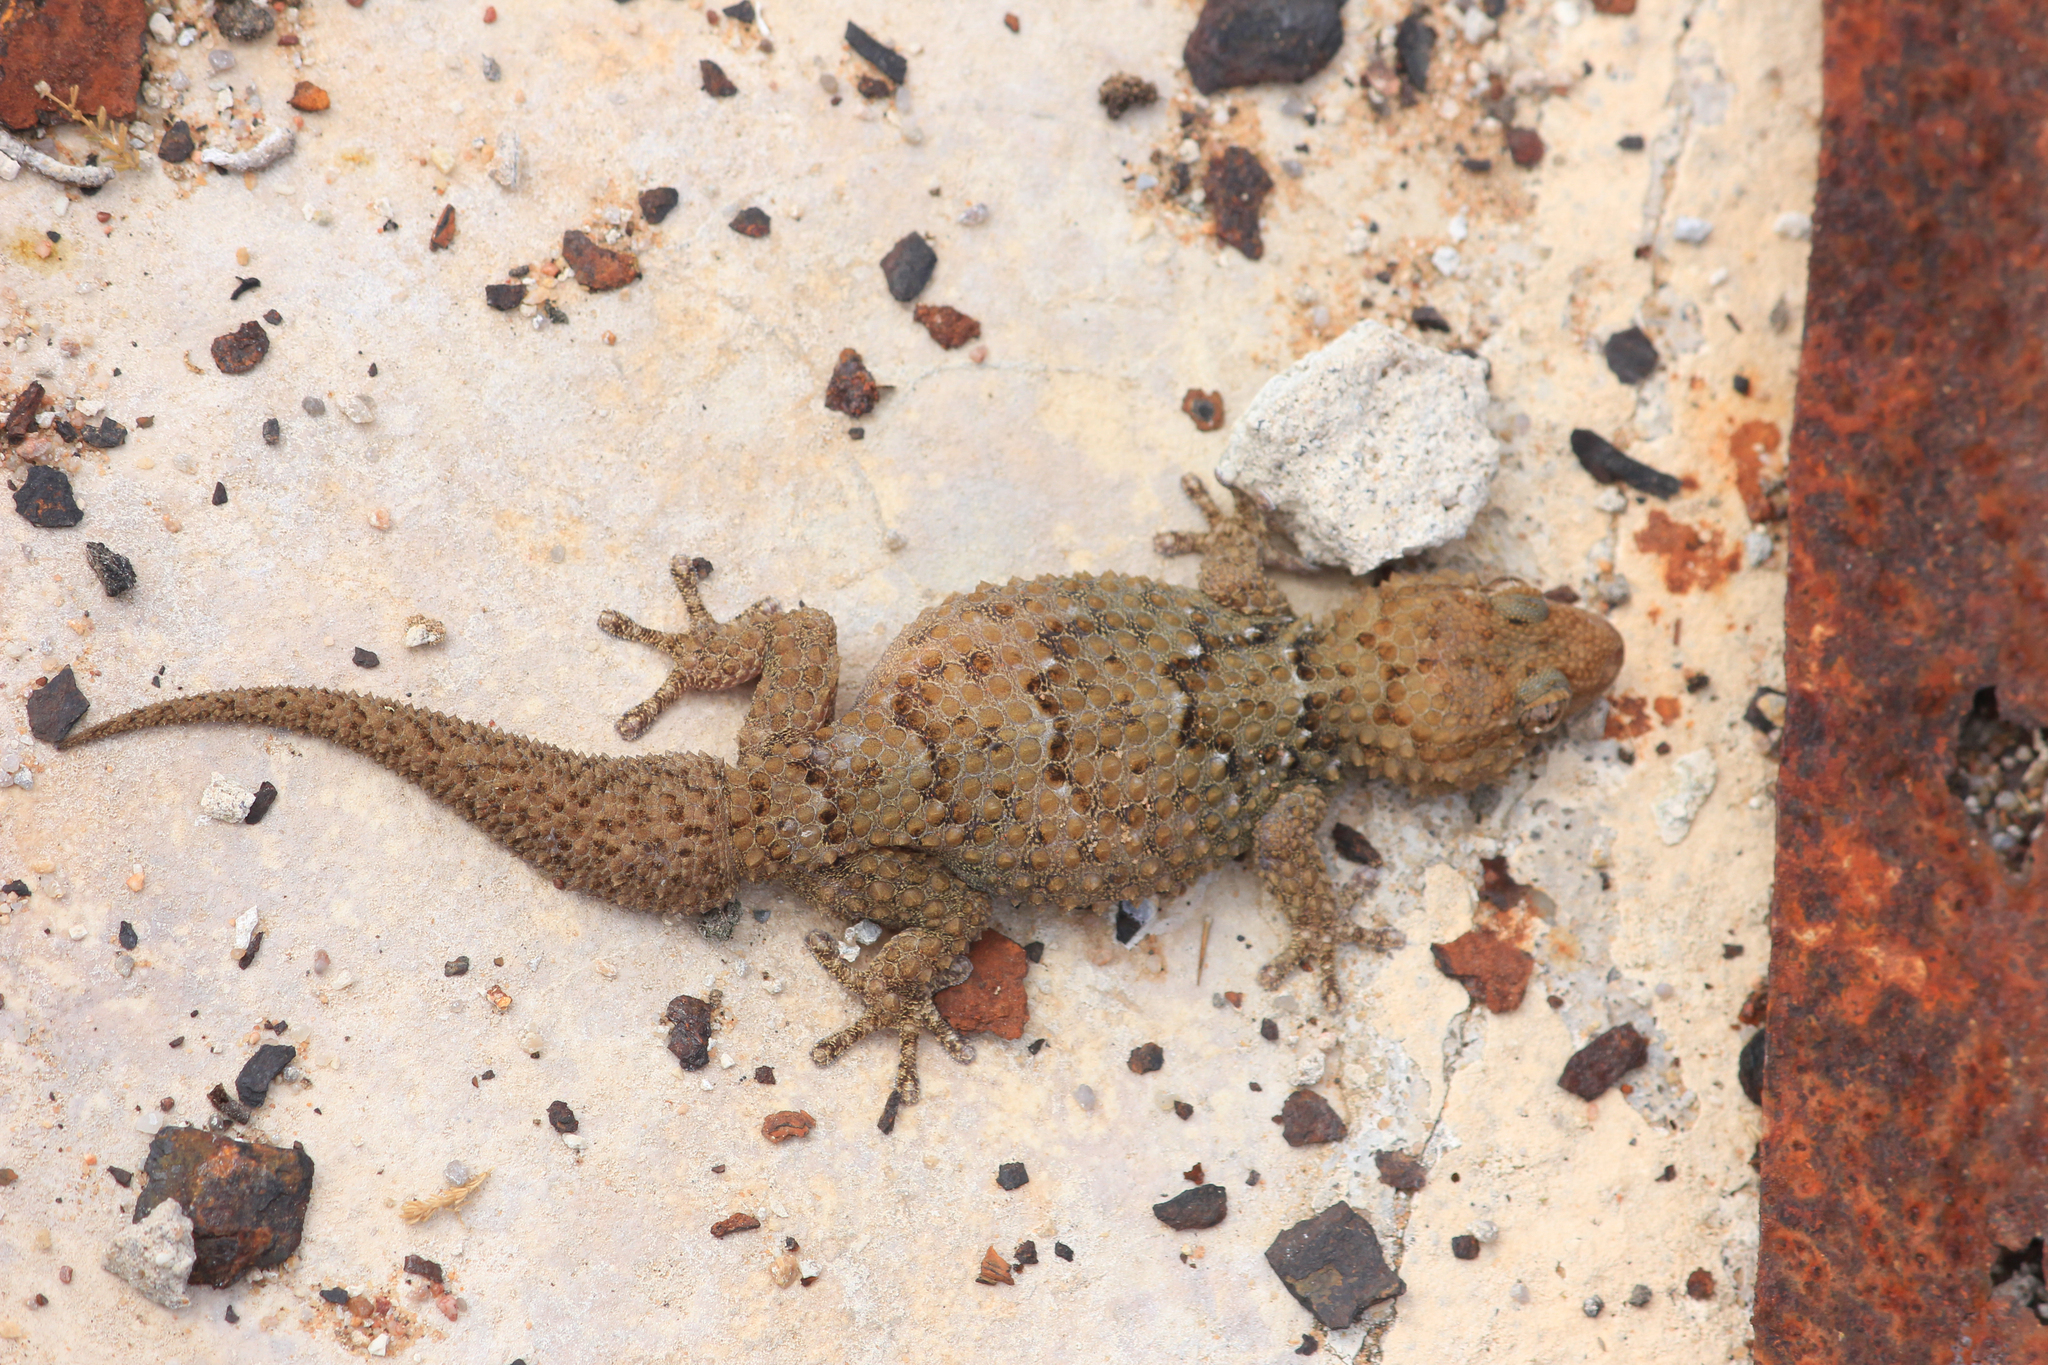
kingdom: Animalia
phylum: Chordata
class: Squamata
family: Gekkonidae
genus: Chondrodactylus
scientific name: Chondrodactylus bibronii
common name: Bibron's gecko
